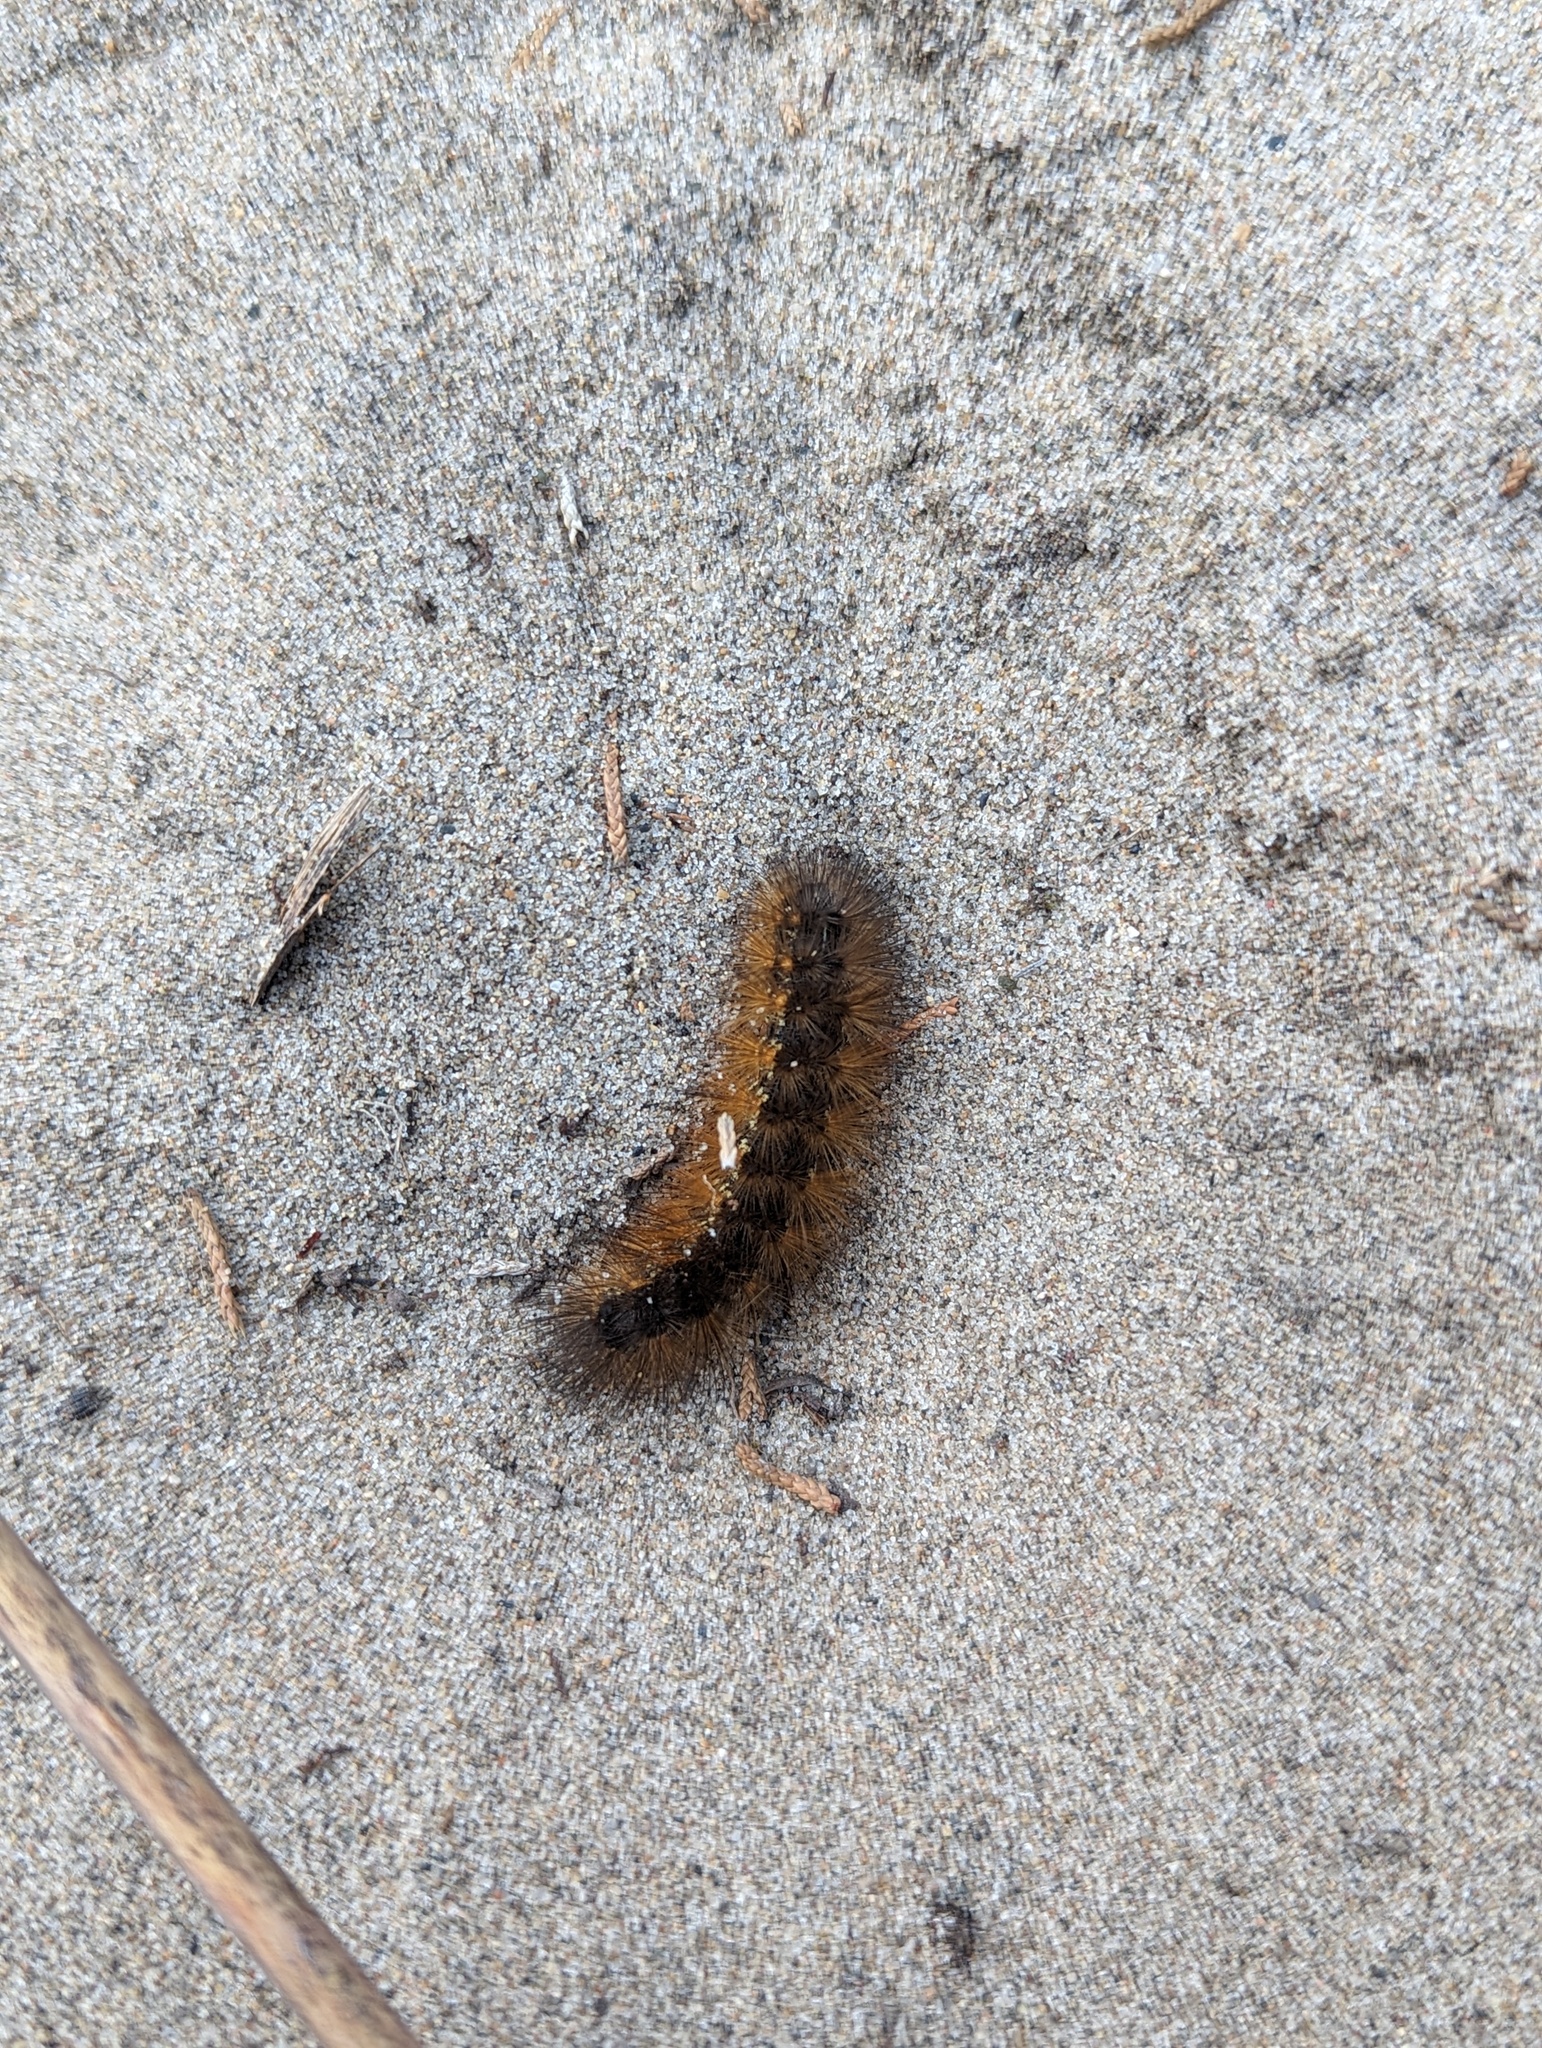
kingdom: Animalia
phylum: Arthropoda
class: Insecta
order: Lepidoptera
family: Erebidae
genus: Estigmene
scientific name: Estigmene acrea
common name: Salt marsh moth
